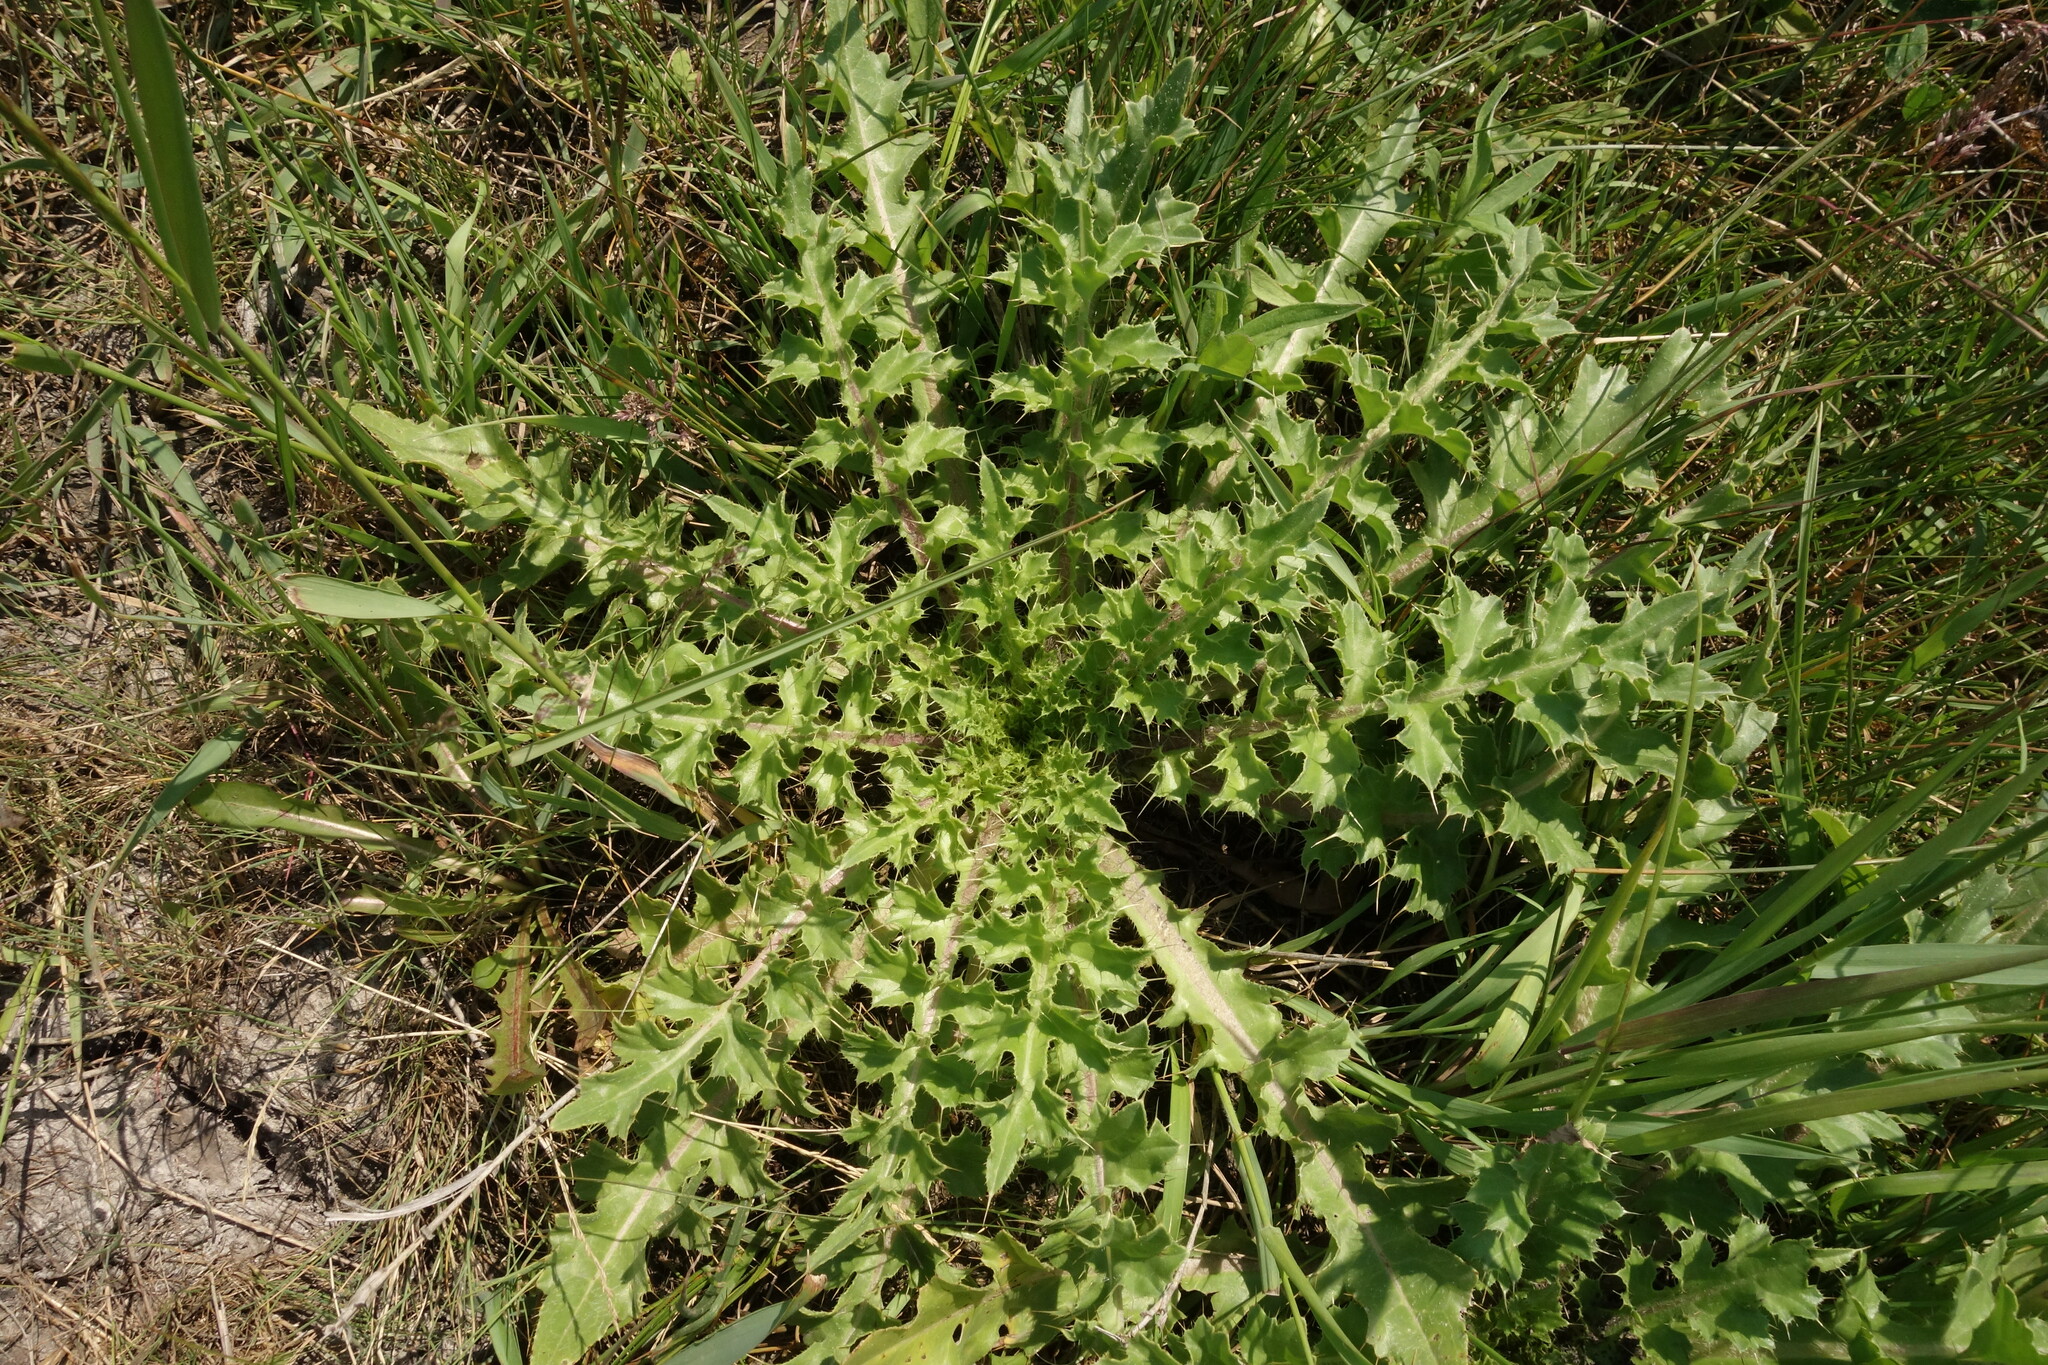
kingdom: Plantae
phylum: Tracheophyta
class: Magnoliopsida
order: Asterales
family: Asteraceae
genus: Cirsium
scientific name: Cirsium esculentum
